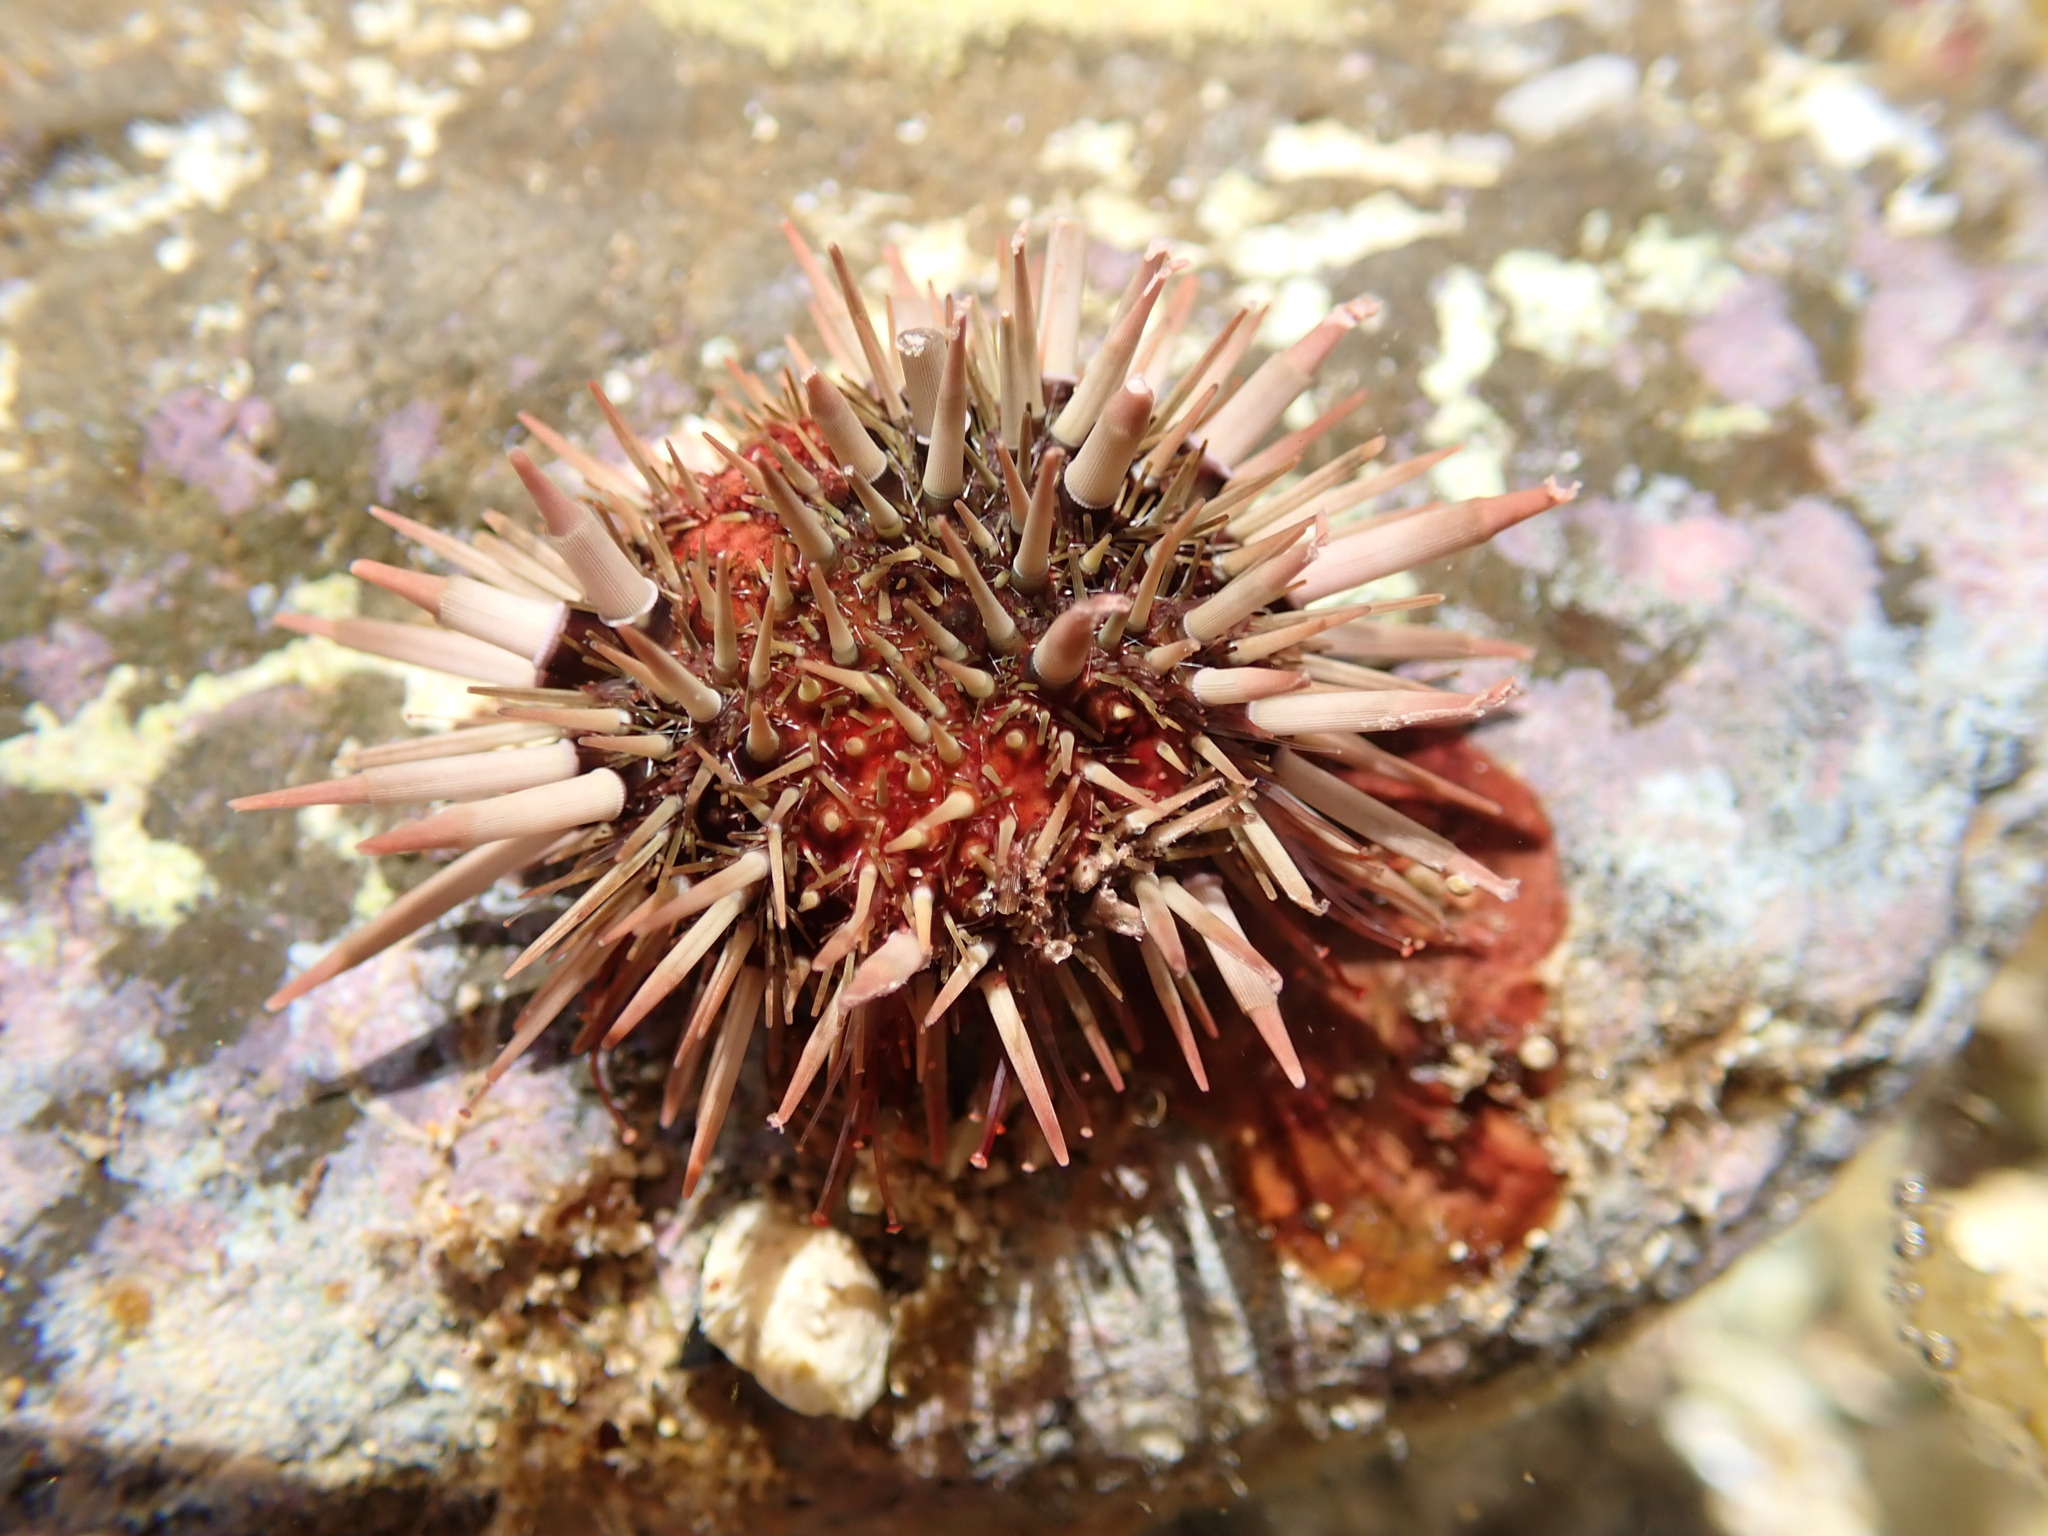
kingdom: Animalia
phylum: Echinodermata
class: Echinoidea
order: Camarodonta
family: Echinometridae
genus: Echinometra
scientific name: Echinometra mathaei
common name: Rock-boring urchin
